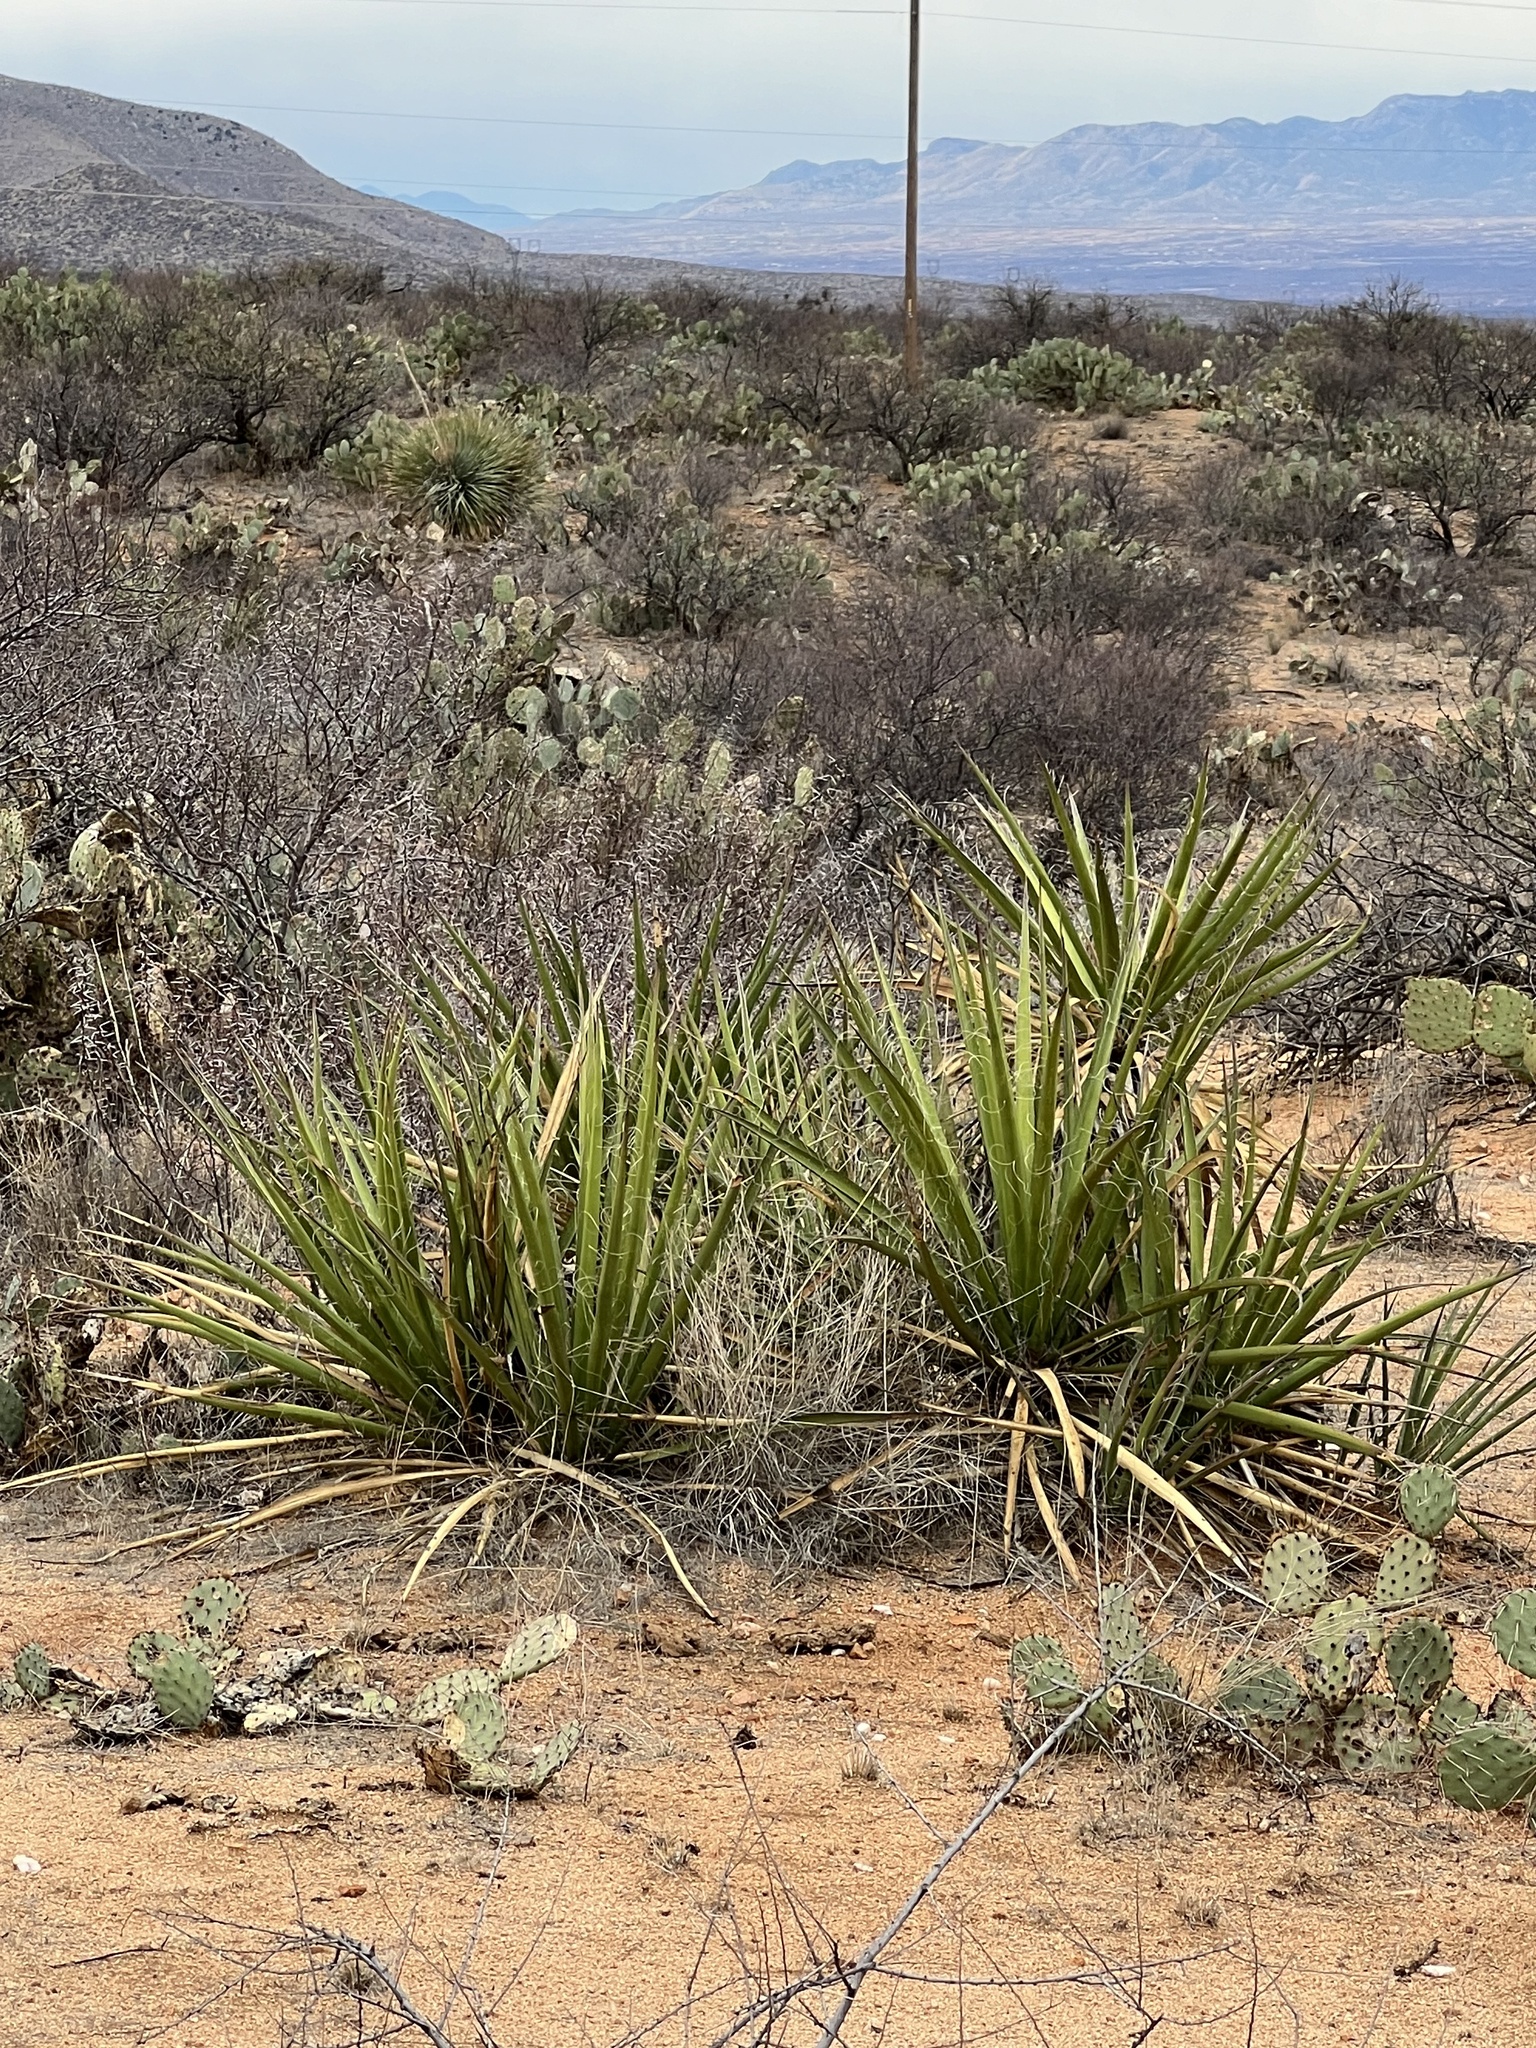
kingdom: Plantae
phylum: Tracheophyta
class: Liliopsida
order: Asparagales
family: Asparagaceae
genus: Yucca
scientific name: Yucca baccata
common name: Banana yucca
